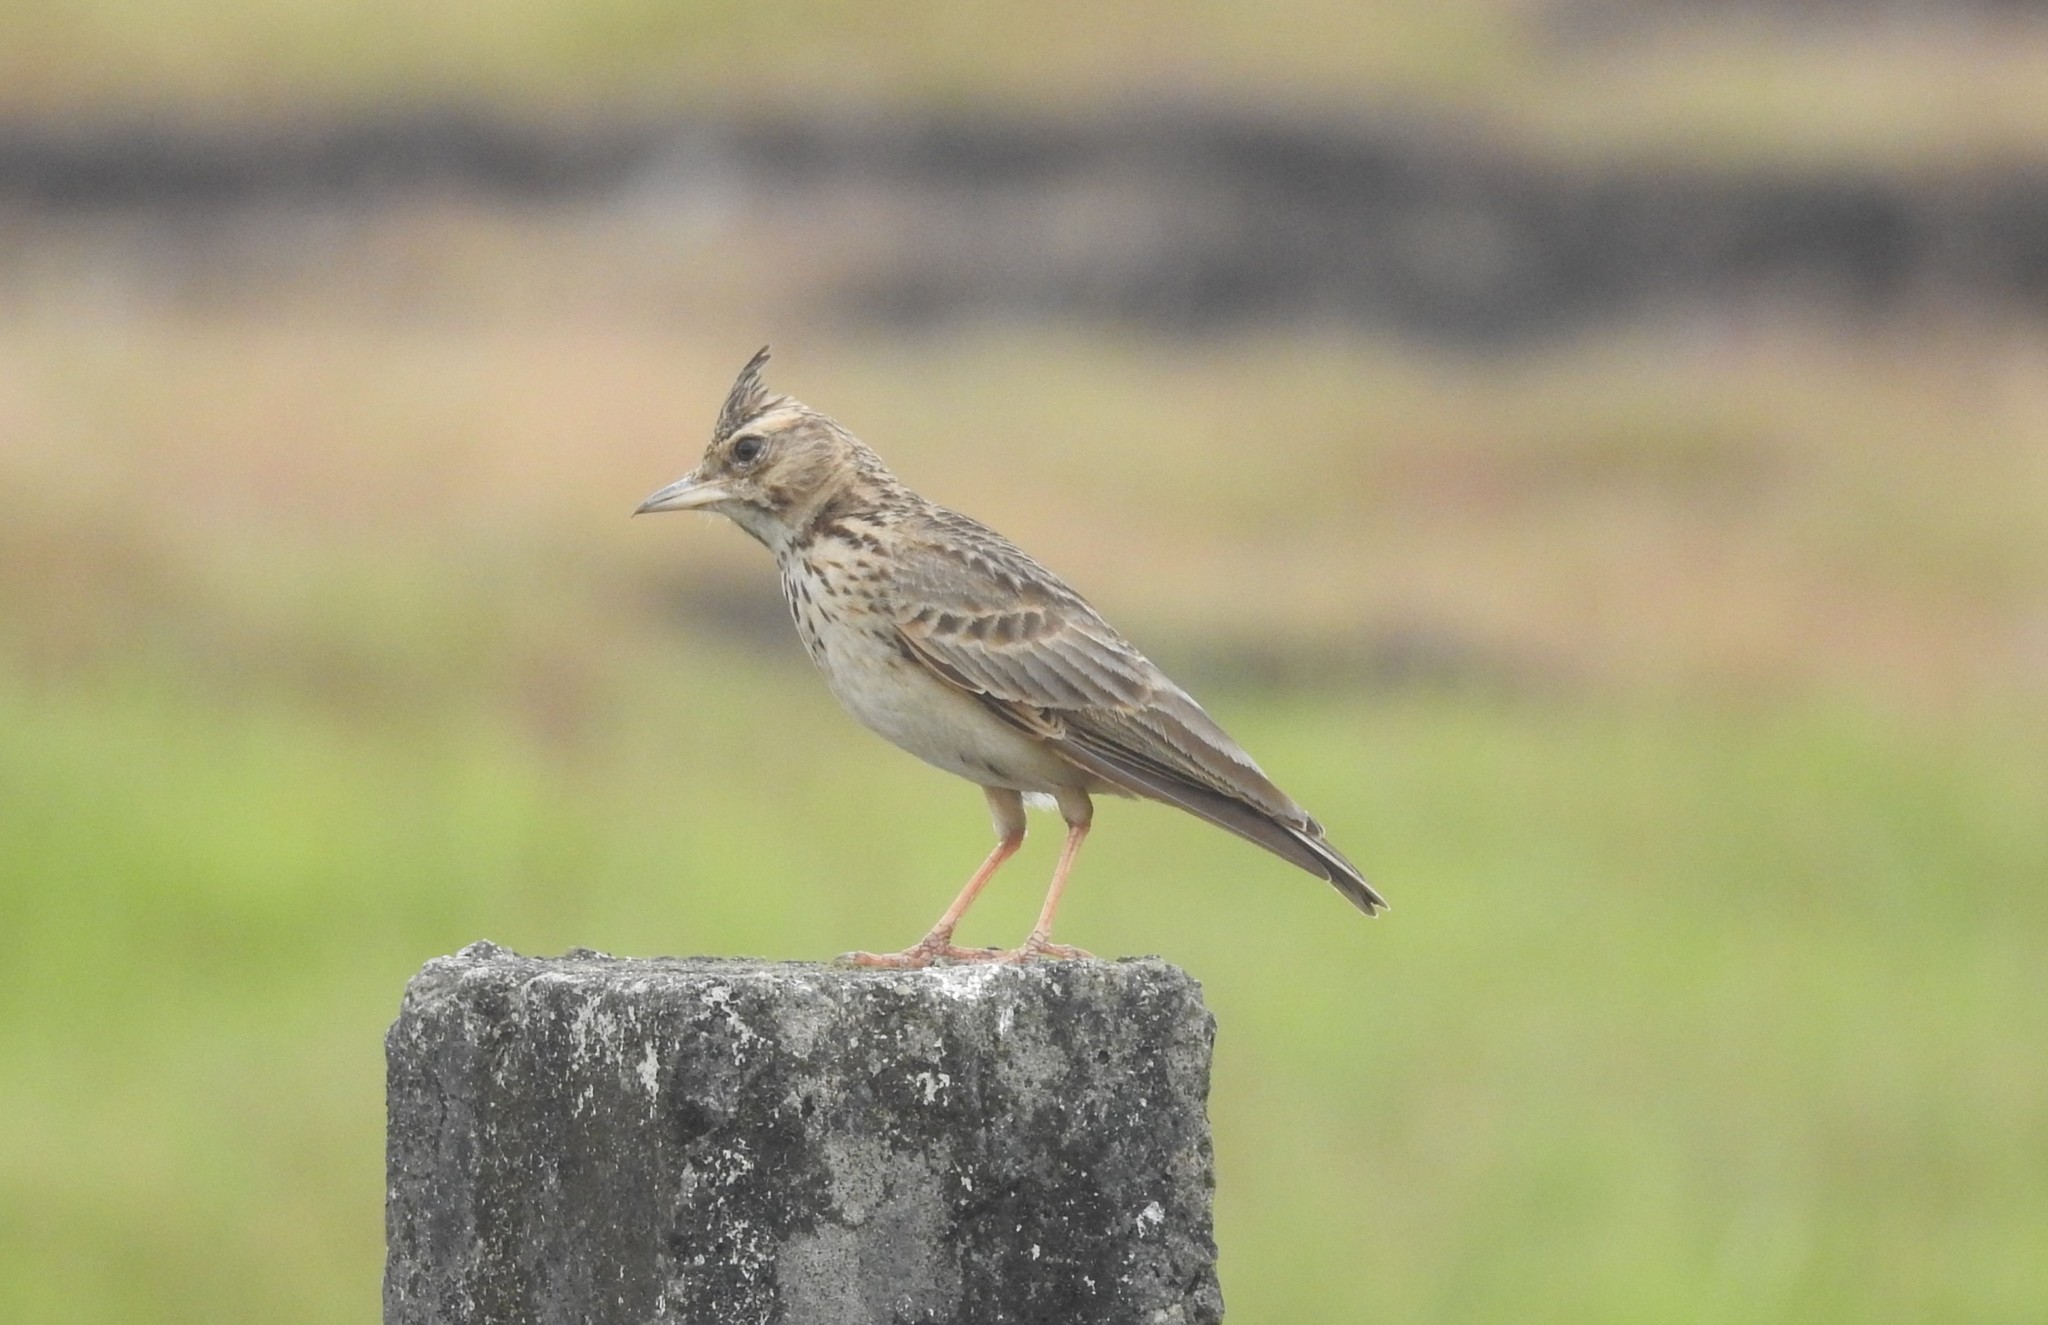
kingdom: Animalia
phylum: Chordata
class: Aves
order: Passeriformes
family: Alaudidae
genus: Galerida
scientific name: Galerida cristata
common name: Crested lark
